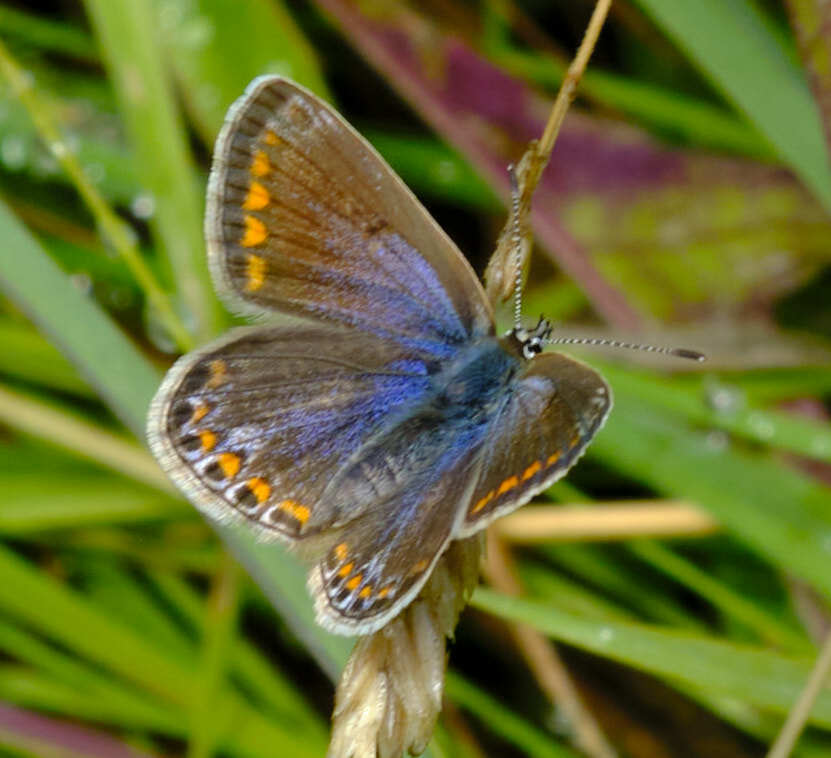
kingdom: Animalia
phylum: Arthropoda
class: Insecta
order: Lepidoptera
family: Lycaenidae
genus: Polyommatus
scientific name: Polyommatus icarus
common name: Common blue
